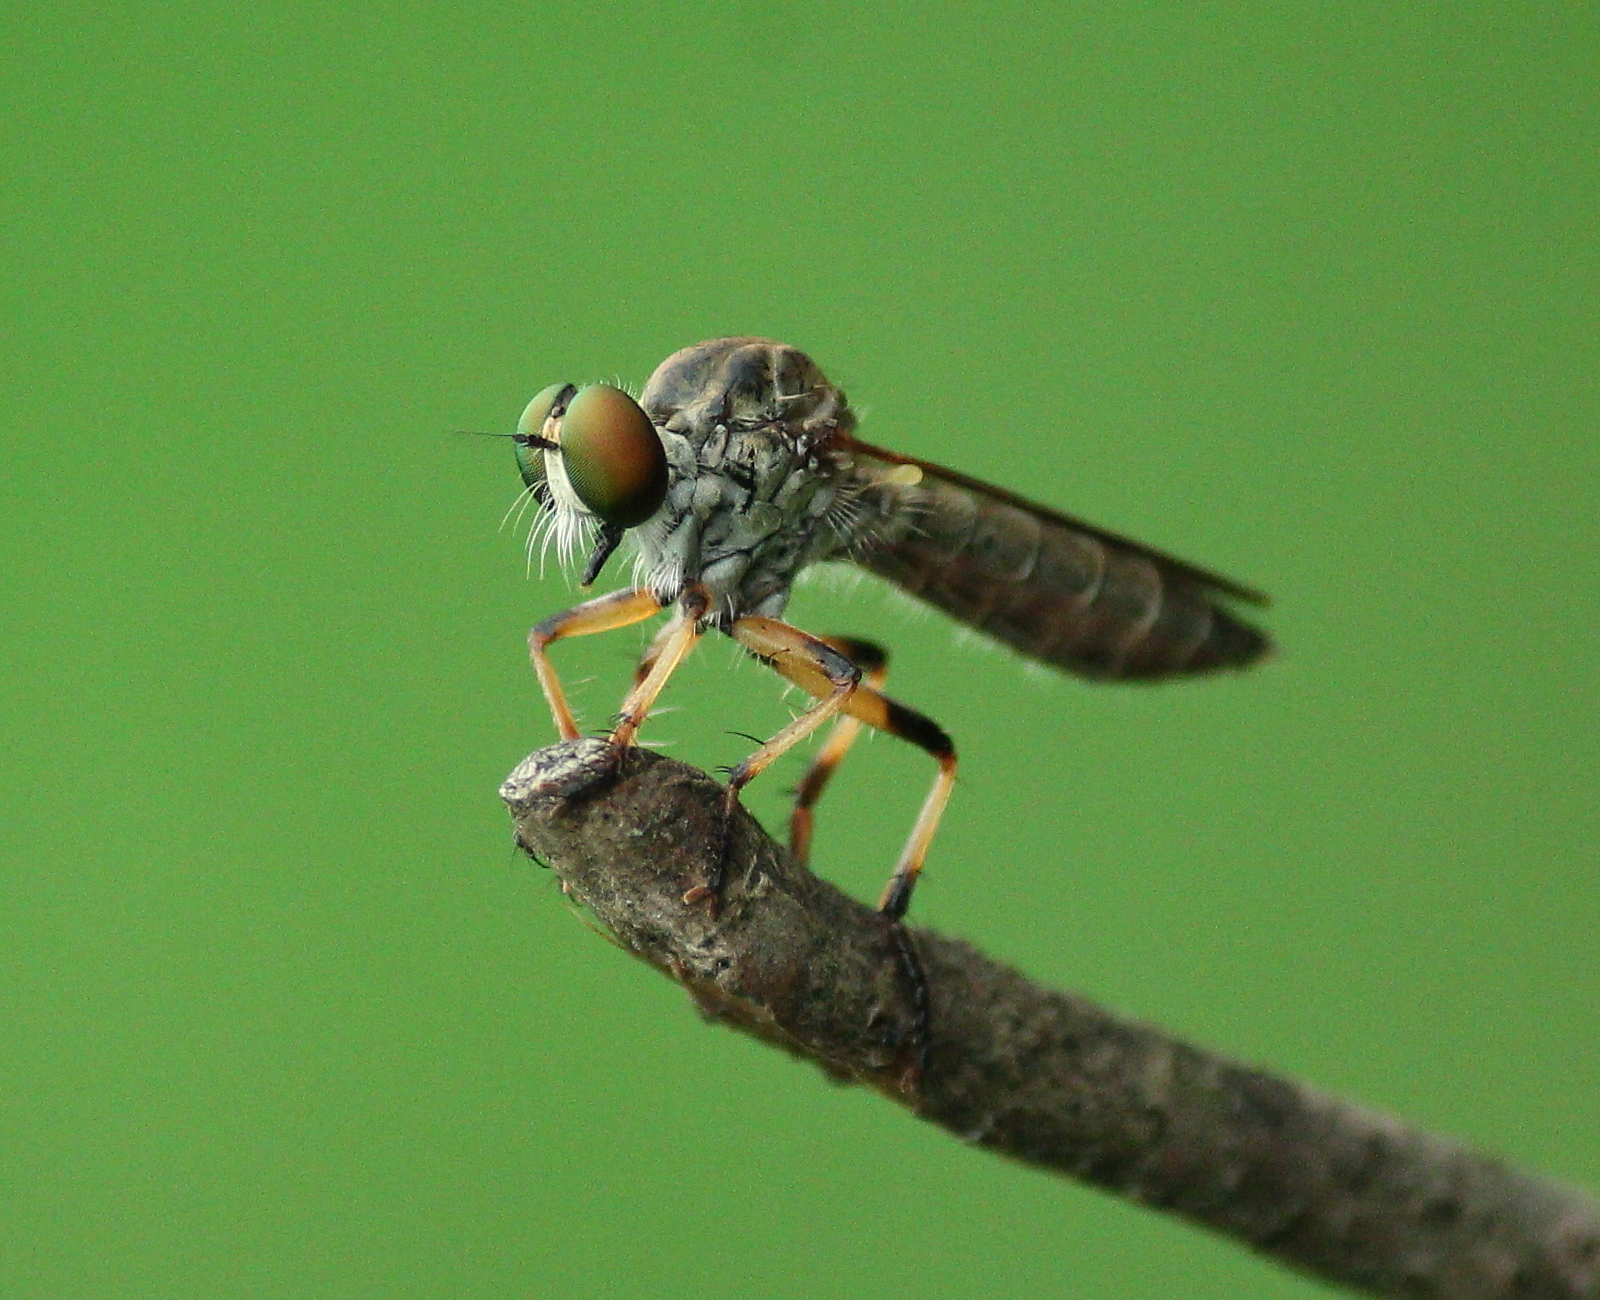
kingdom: Animalia
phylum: Arthropoda
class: Insecta
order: Diptera
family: Asilidae
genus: Ommatius
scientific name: Ommatius ouachitensis
